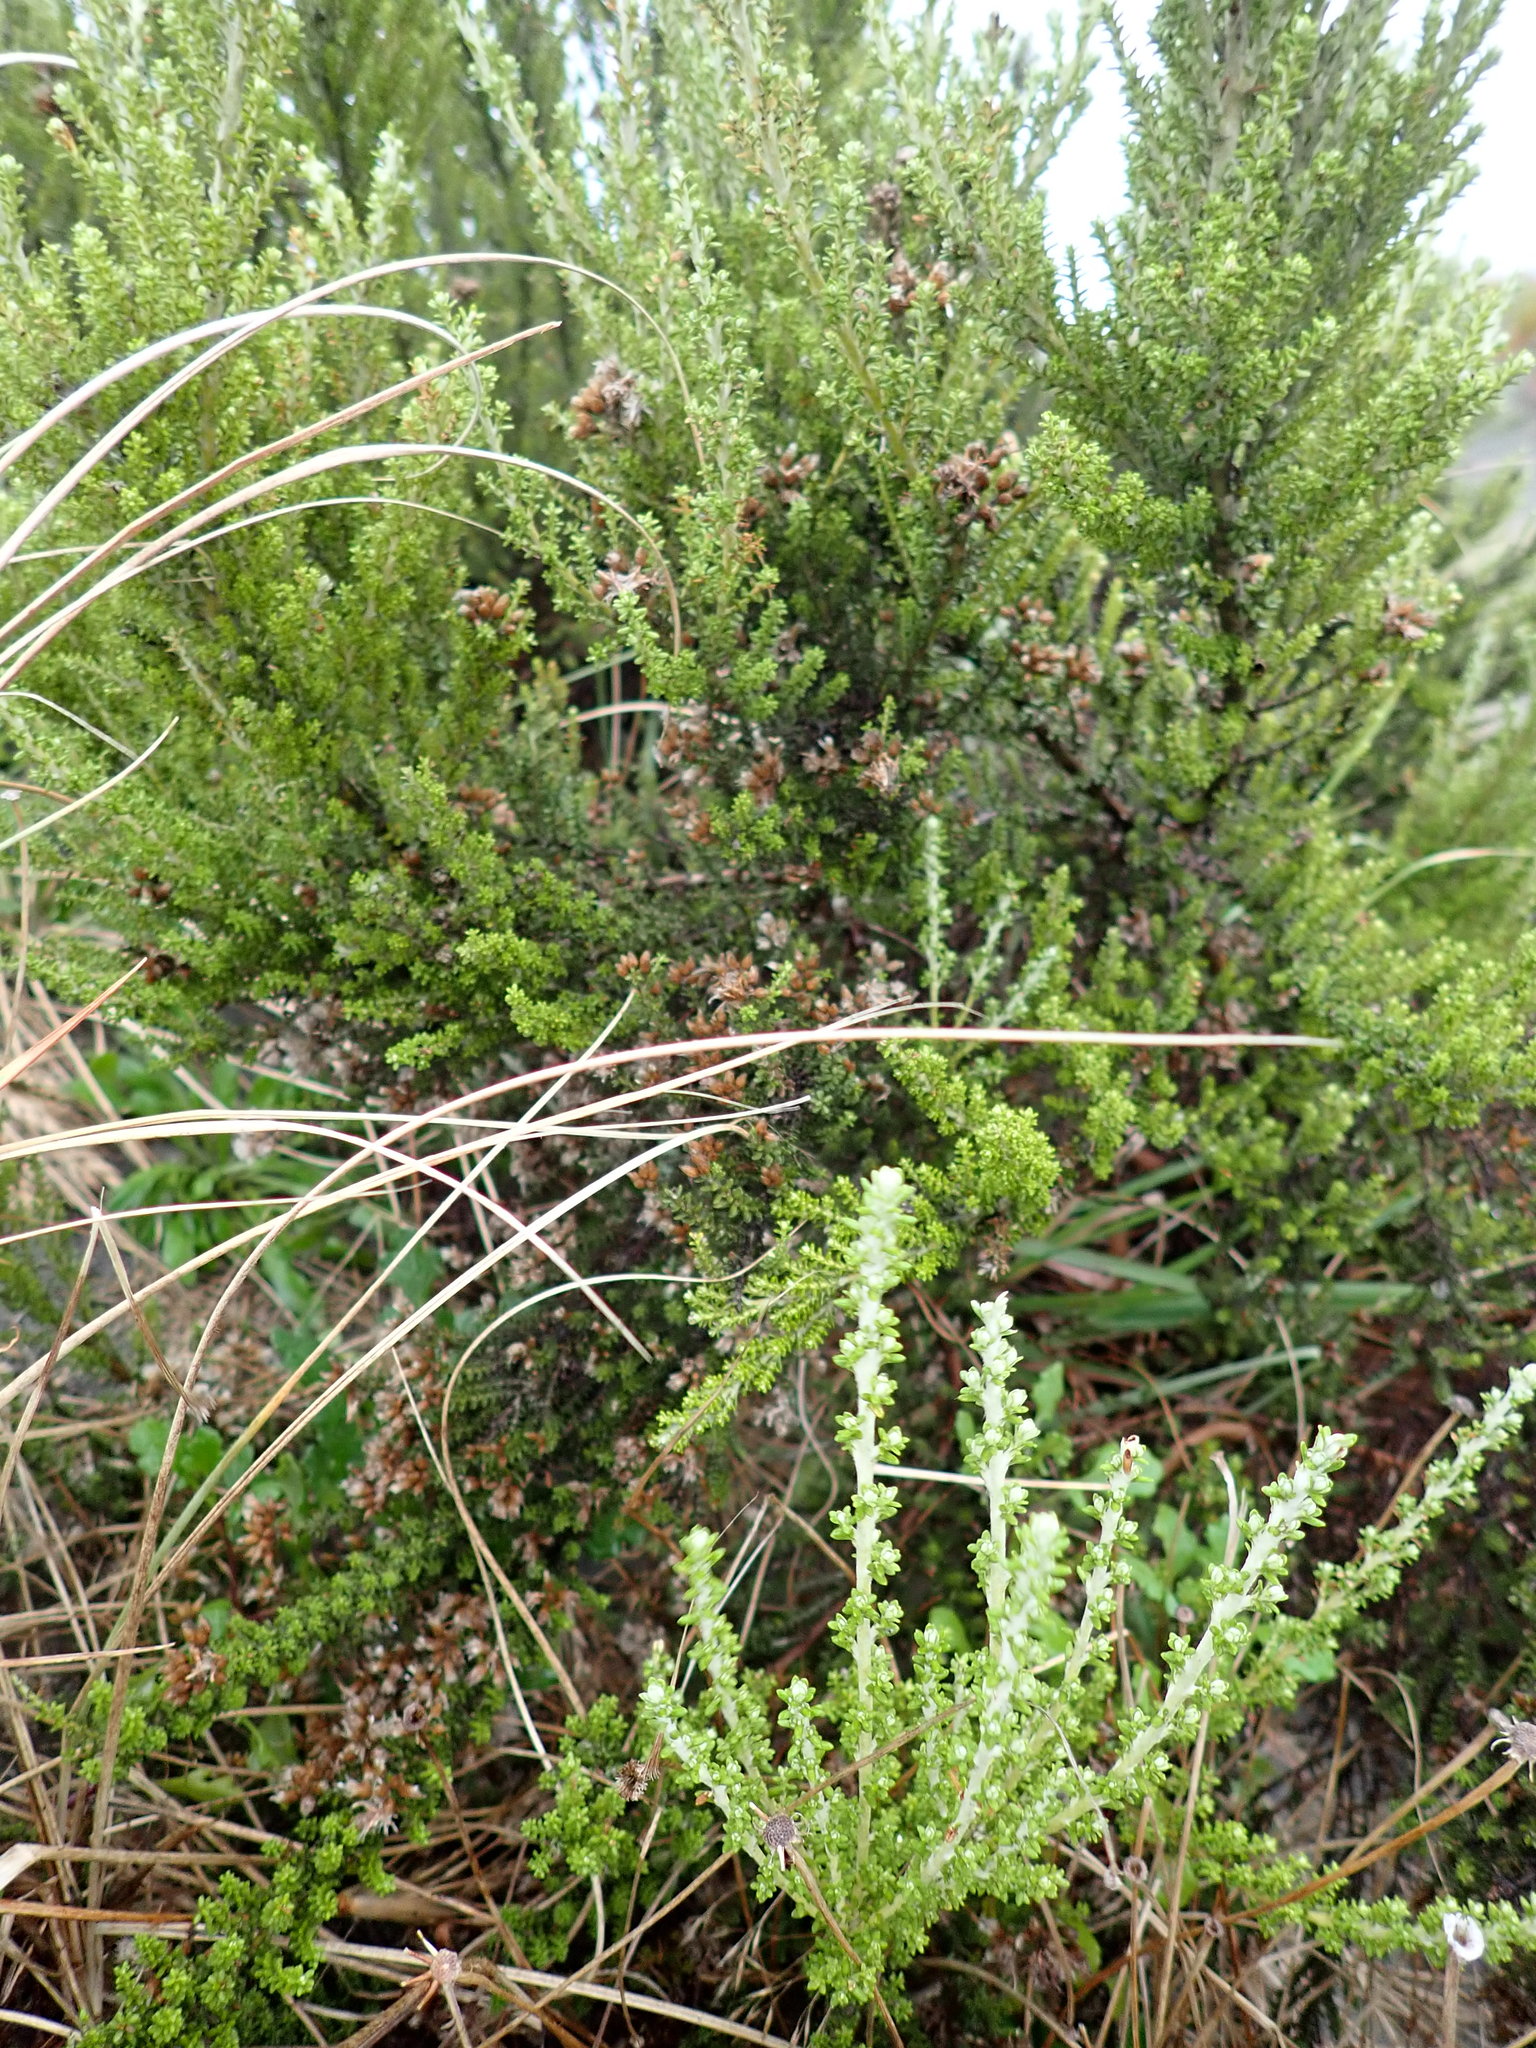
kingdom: Plantae
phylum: Tracheophyta
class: Magnoliopsida
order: Asterales
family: Asteraceae
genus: Ozothamnus
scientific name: Ozothamnus leptophyllus
